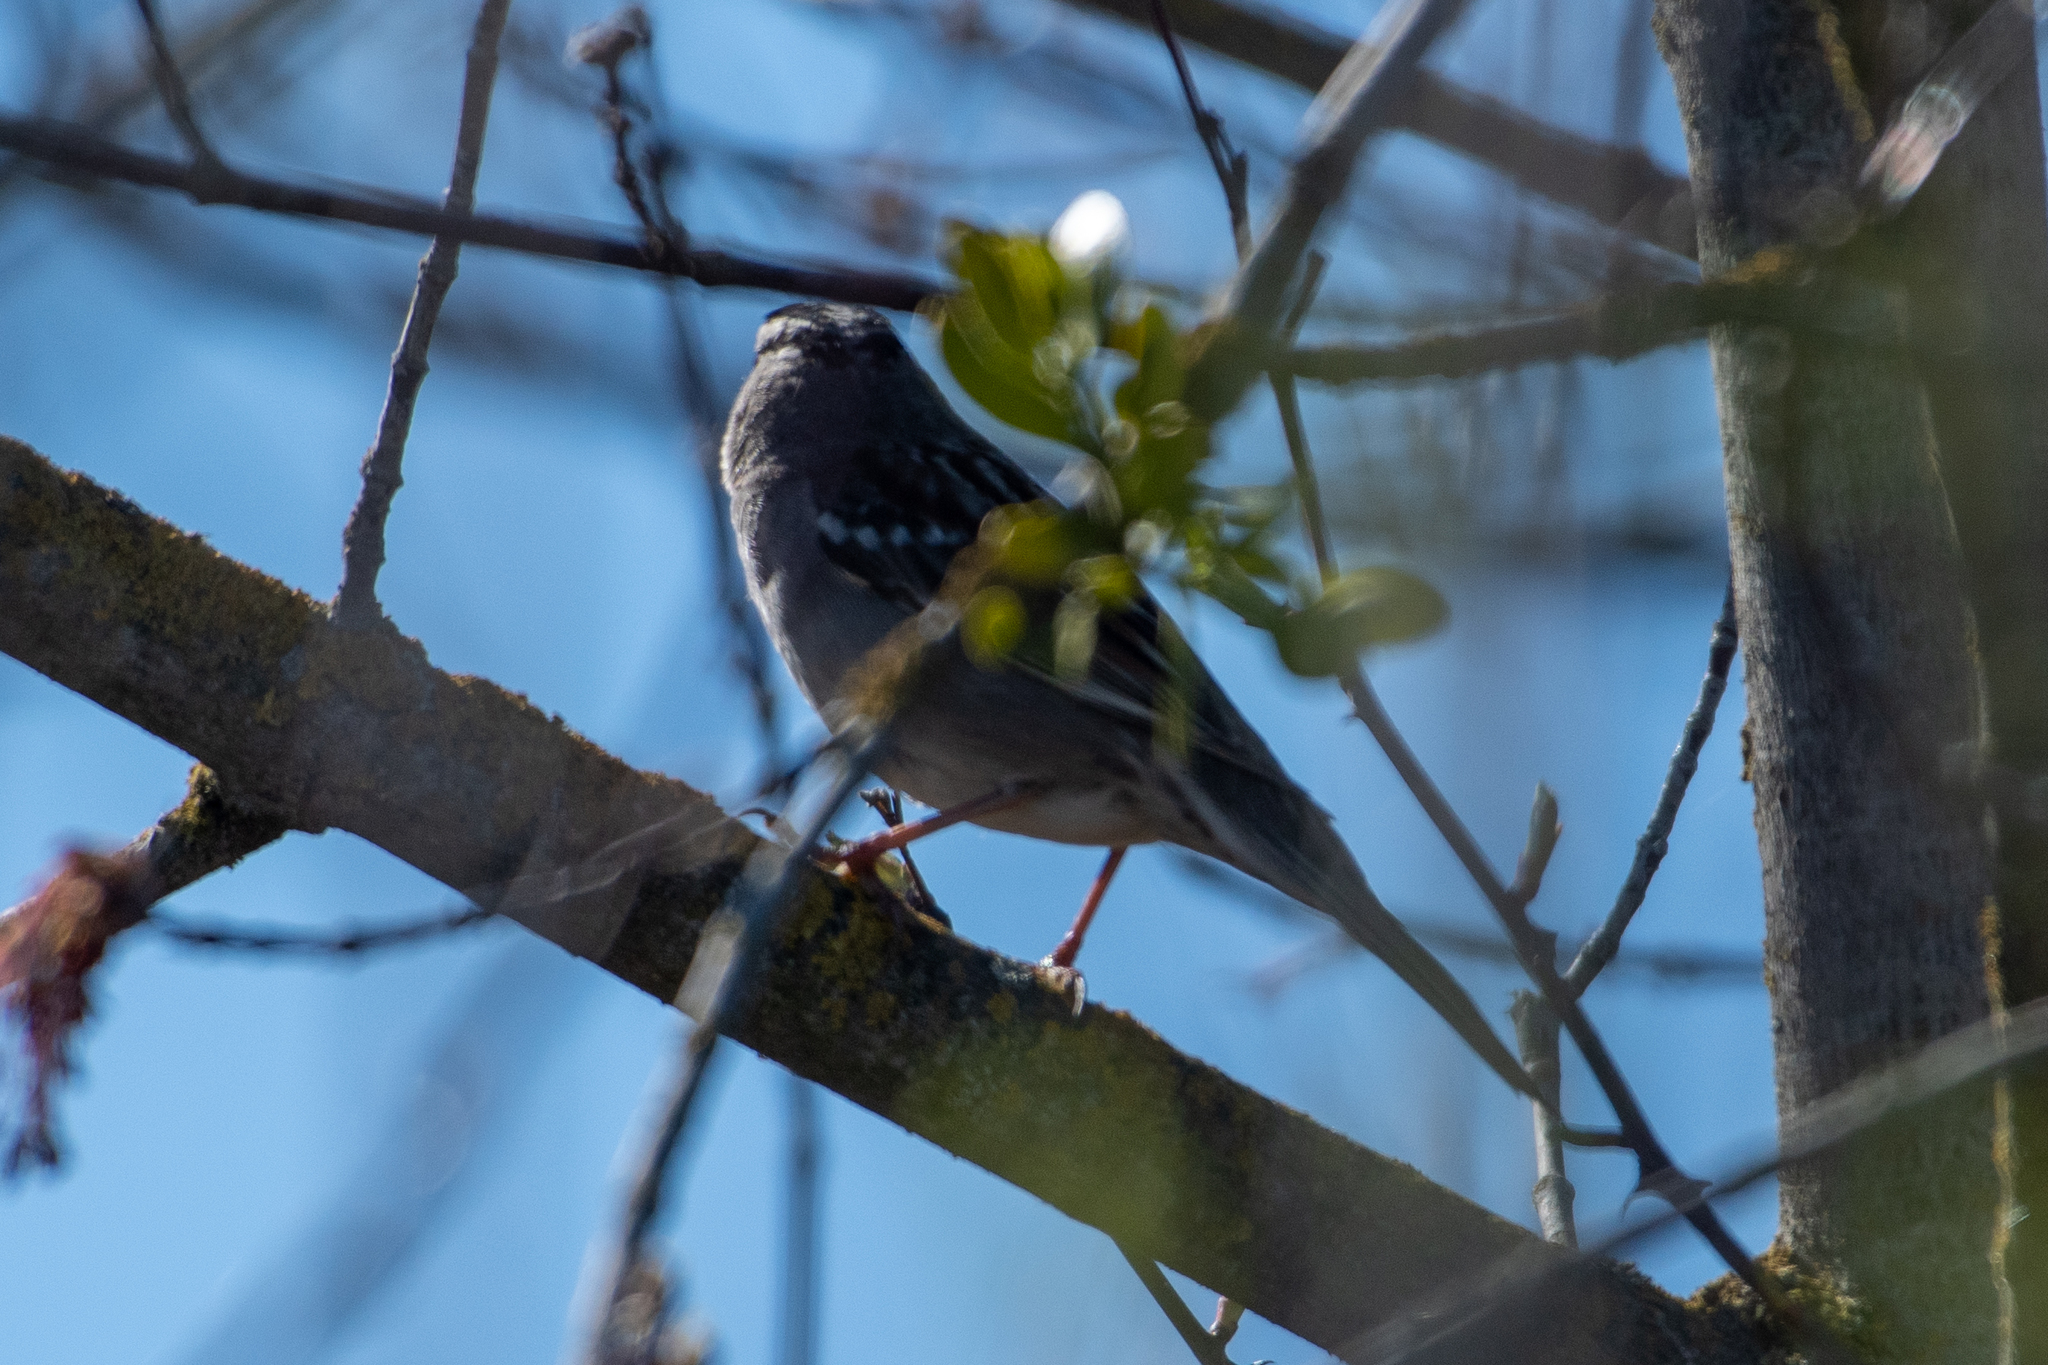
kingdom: Animalia
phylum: Chordata
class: Aves
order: Passeriformes
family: Passerellidae
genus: Zonotrichia
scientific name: Zonotrichia leucophrys
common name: White-crowned sparrow
